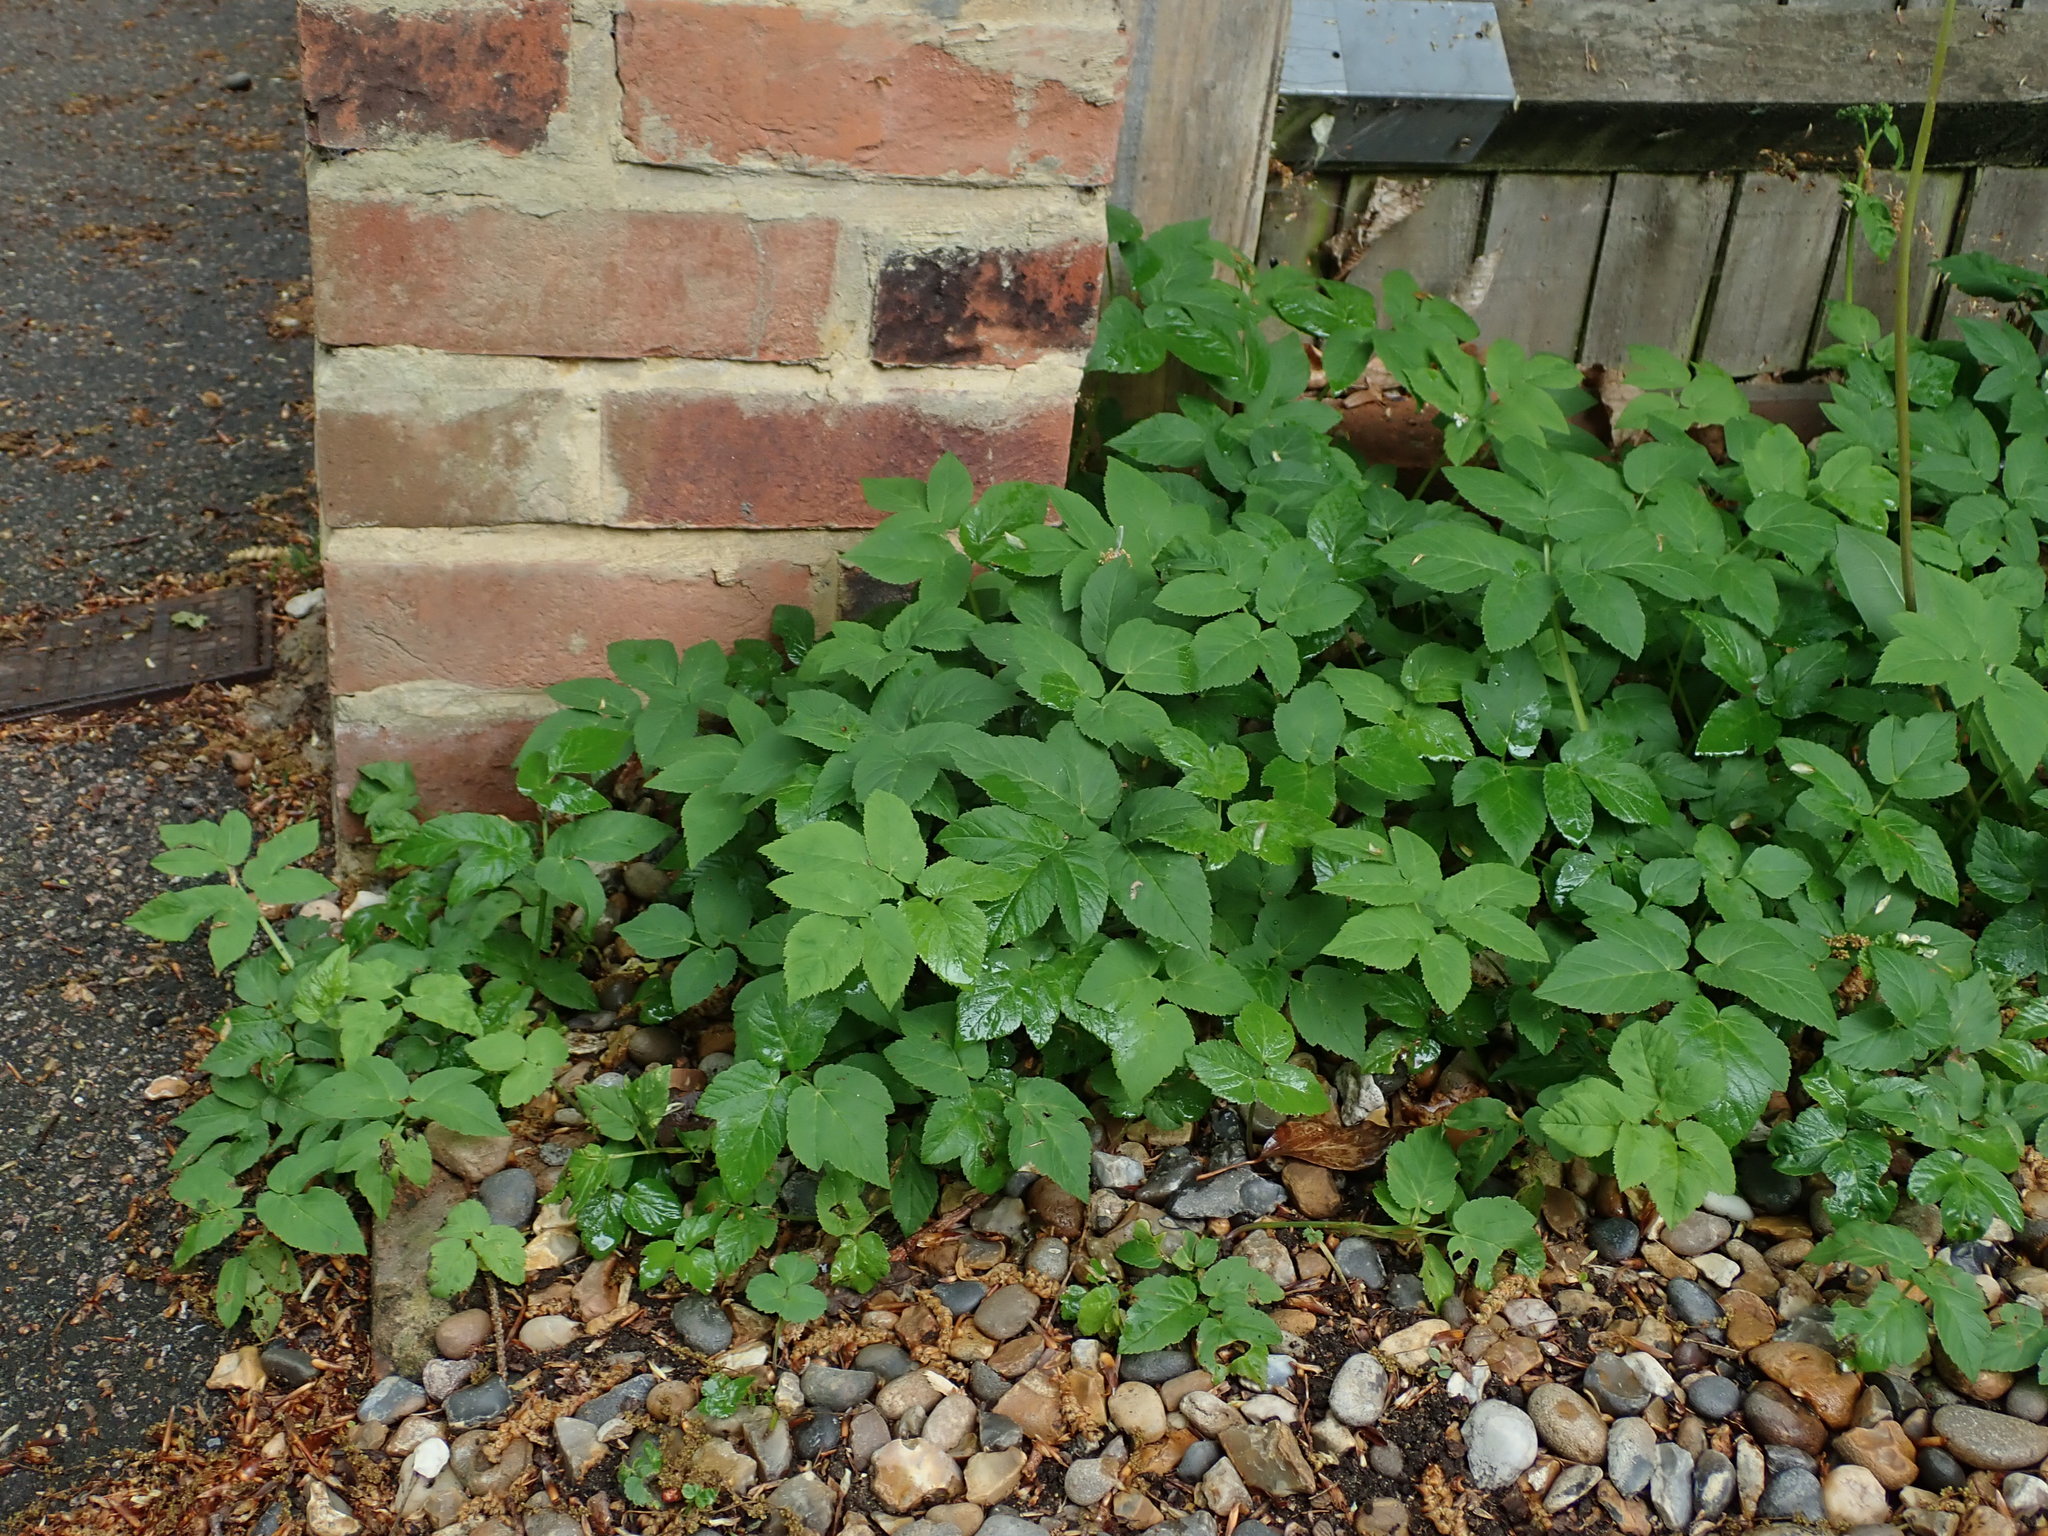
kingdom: Plantae
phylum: Tracheophyta
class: Magnoliopsida
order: Apiales
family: Apiaceae
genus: Aegopodium
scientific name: Aegopodium podagraria
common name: Ground-elder
